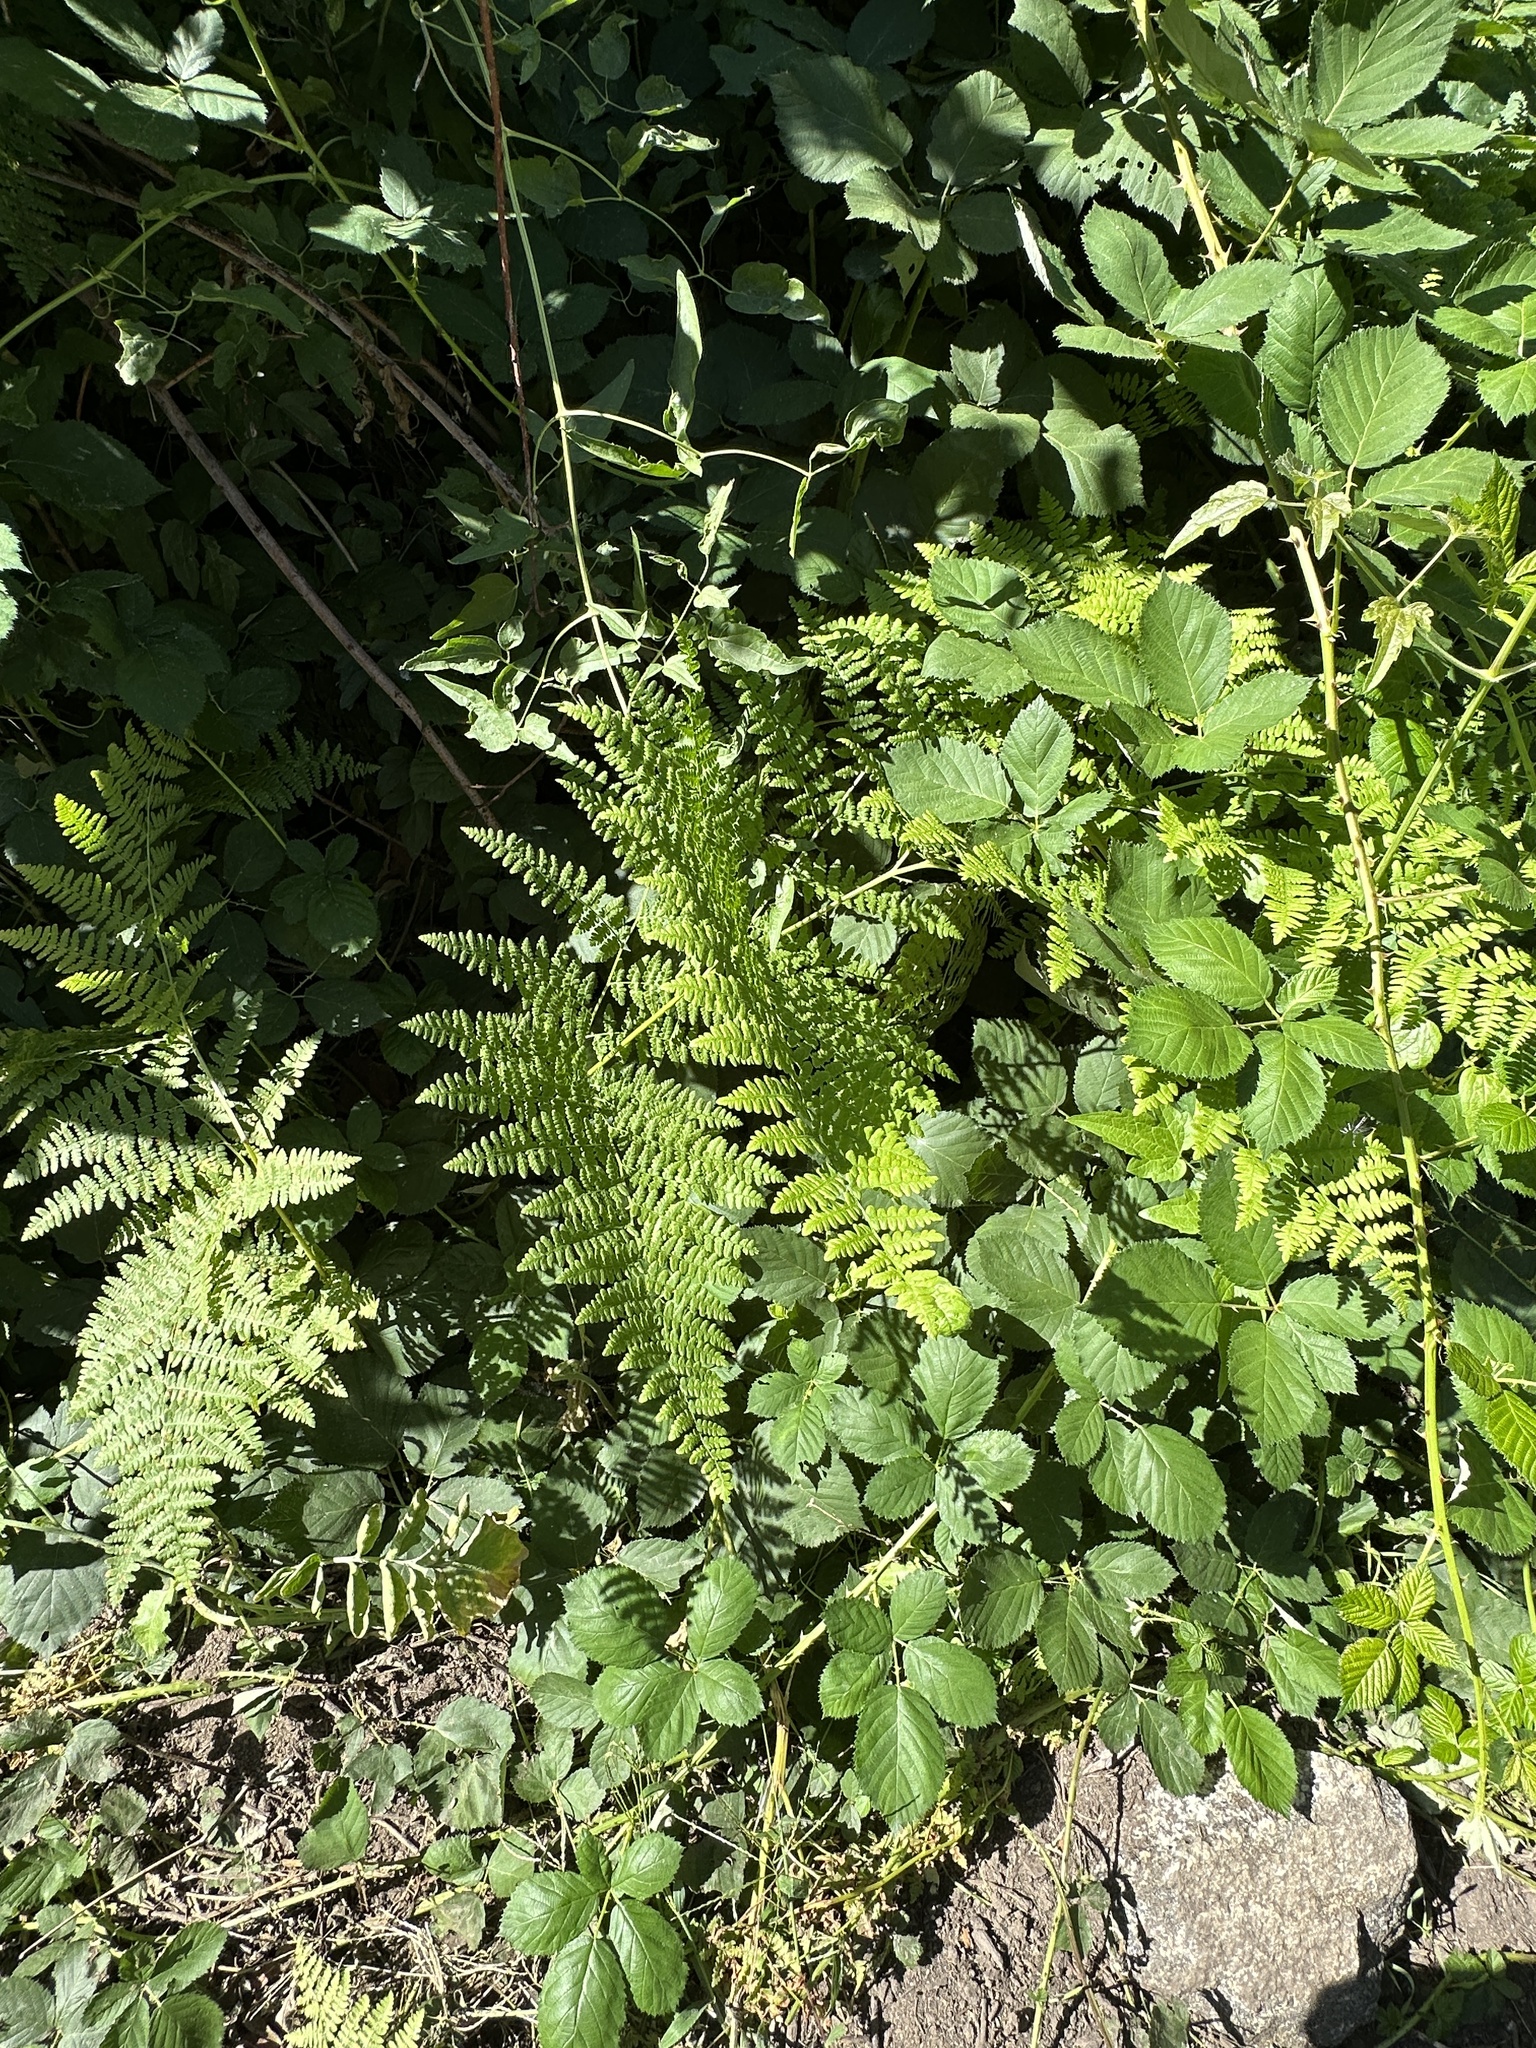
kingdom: Plantae
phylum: Tracheophyta
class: Polypodiopsida
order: Polypodiales
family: Dennstaedtiaceae
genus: Pteridium
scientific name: Pteridium aquilinum
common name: Bracken
